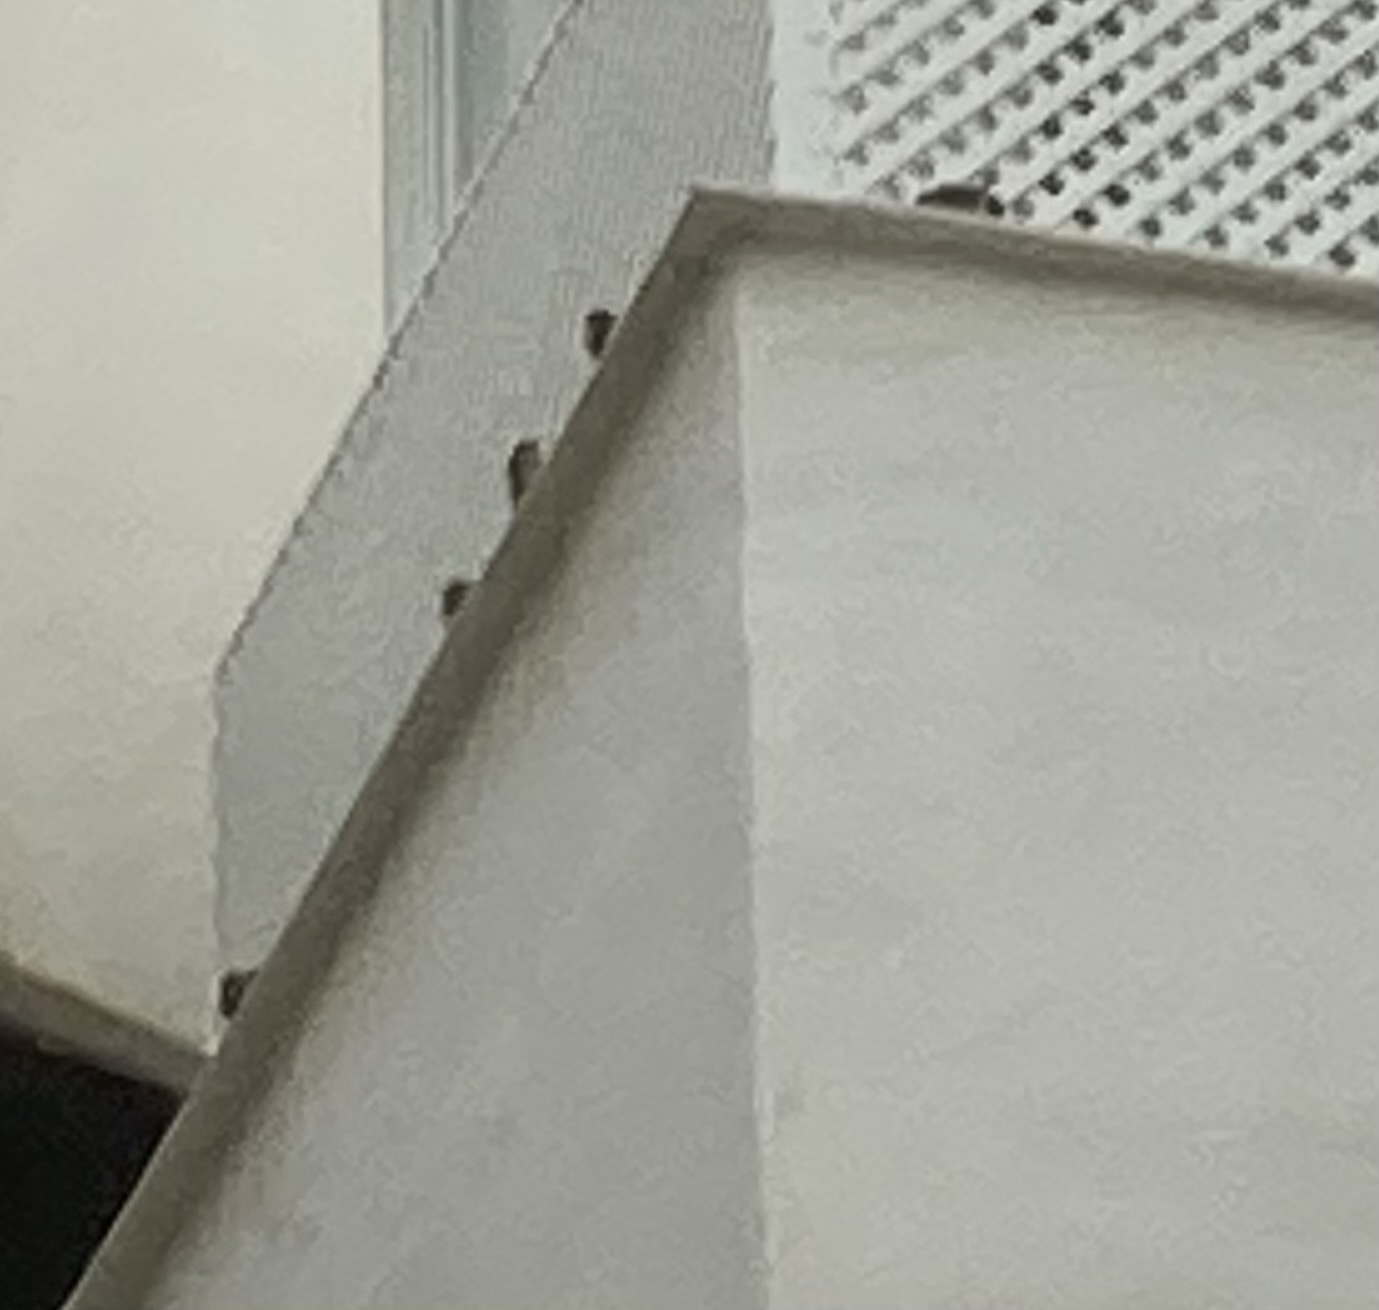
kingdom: Animalia
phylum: Chordata
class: Aves
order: Passeriformes
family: Hirundinidae
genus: Ptyonoprogne
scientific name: Ptyonoprogne rupestris
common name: Eurasian crag martin
